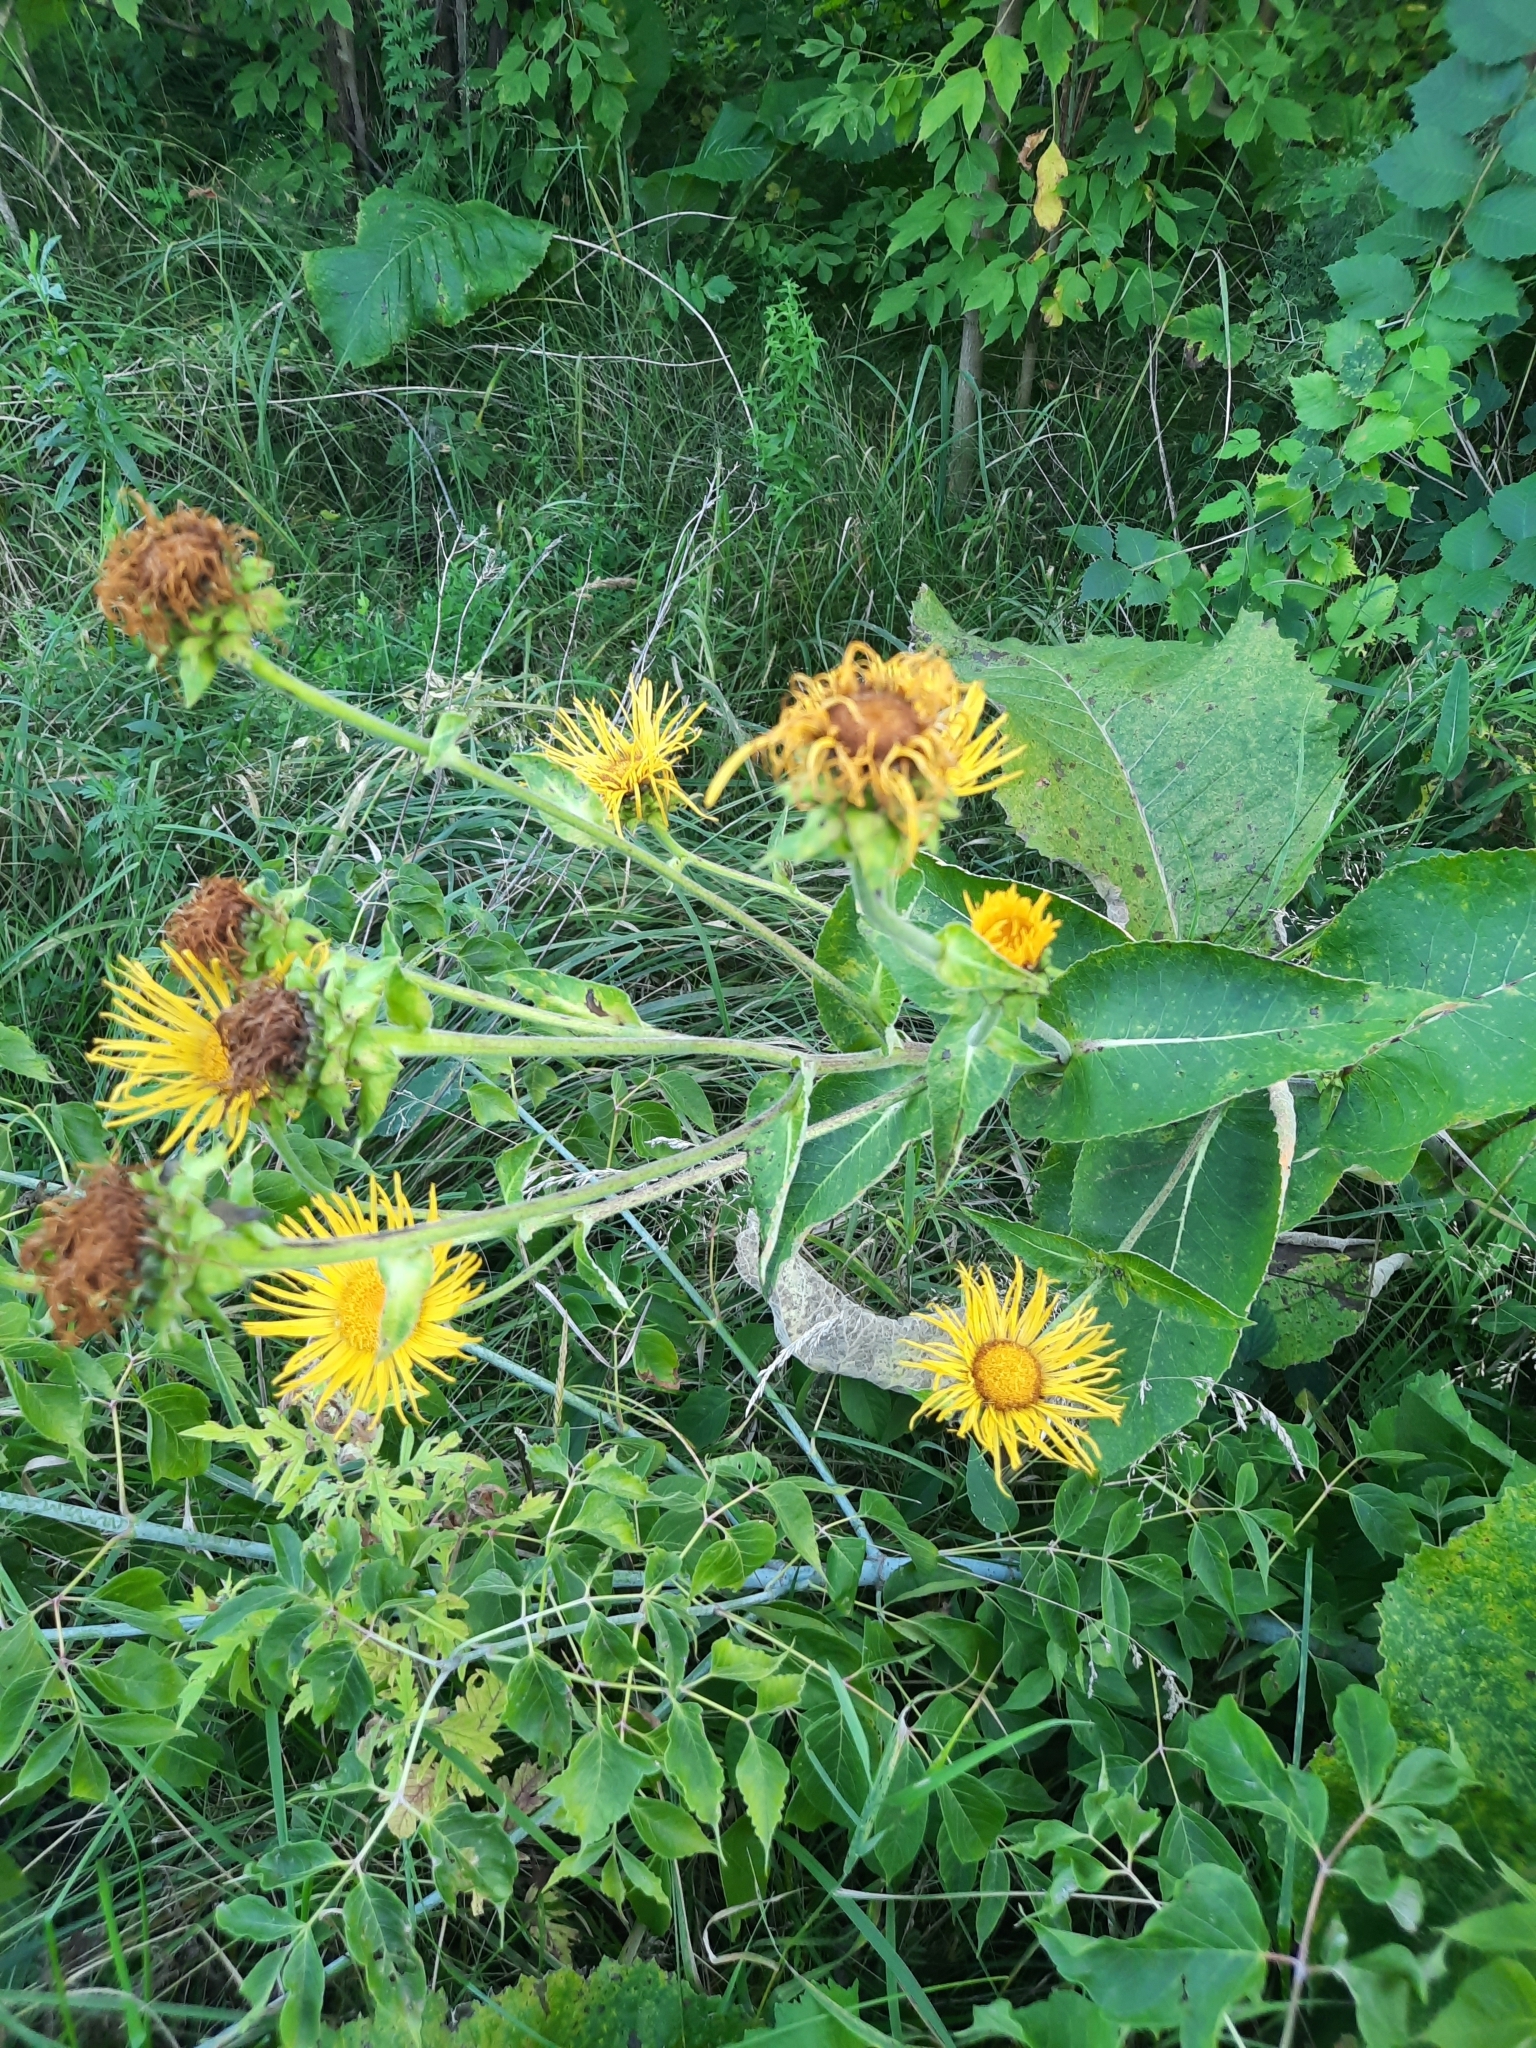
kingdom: Plantae
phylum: Tracheophyta
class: Magnoliopsida
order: Asterales
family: Asteraceae
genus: Inula
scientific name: Inula helenium
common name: Elecampane
